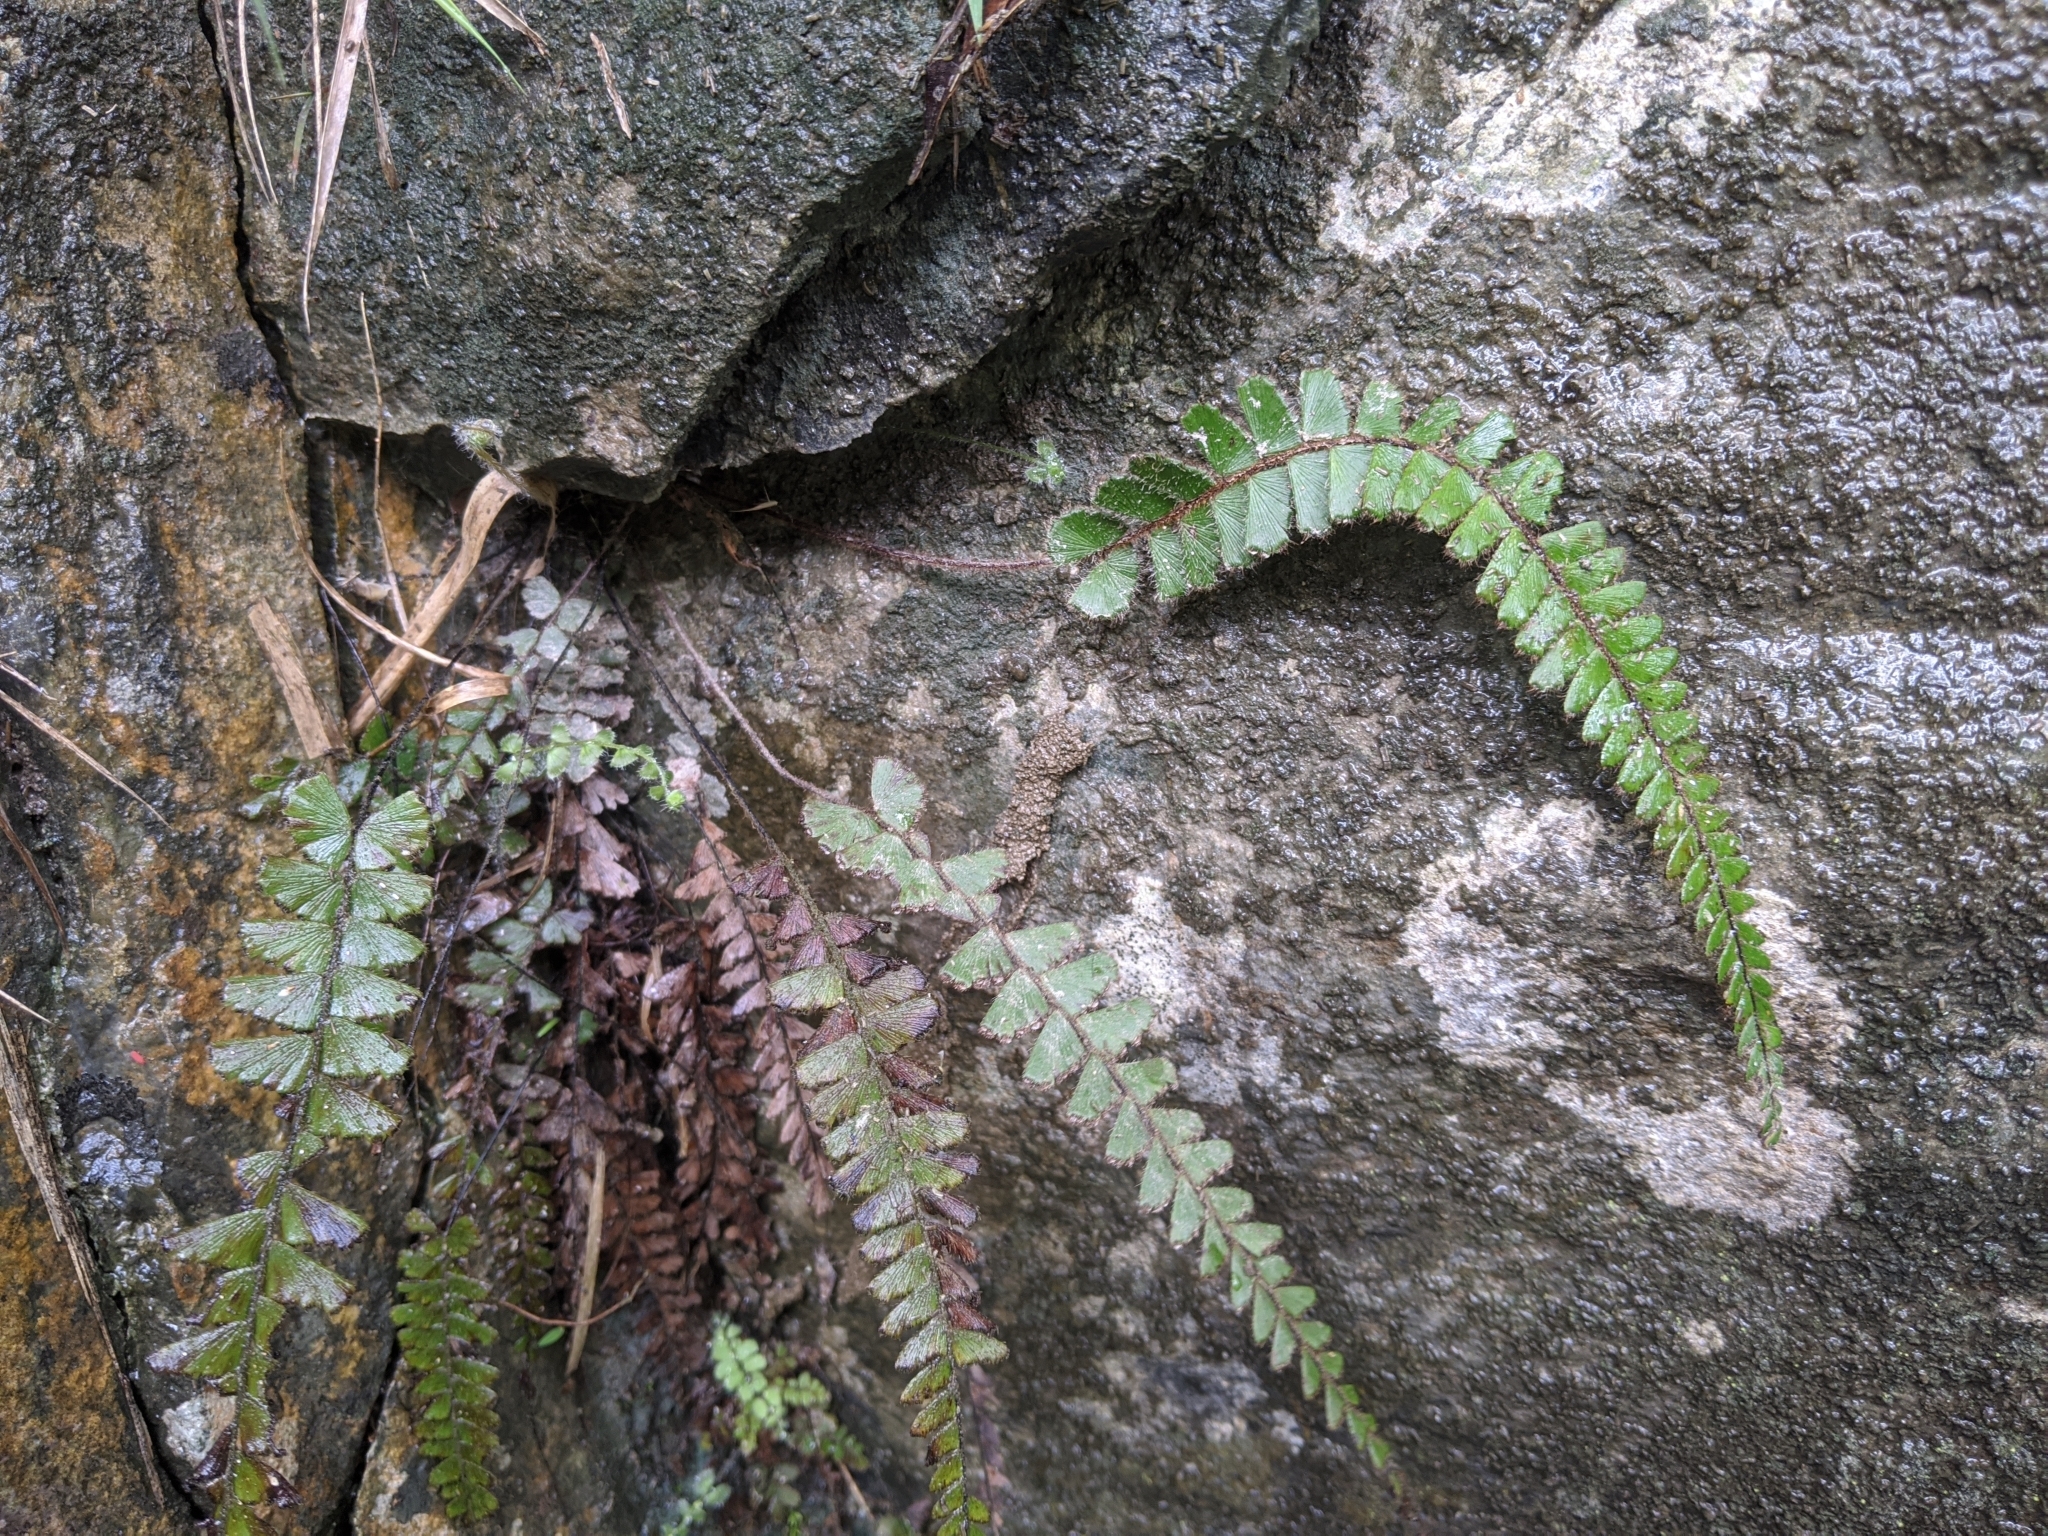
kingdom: Plantae
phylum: Tracheophyta
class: Polypodiopsida
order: Polypodiales
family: Pteridaceae
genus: Adiantum
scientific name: Adiantum ciliatum
